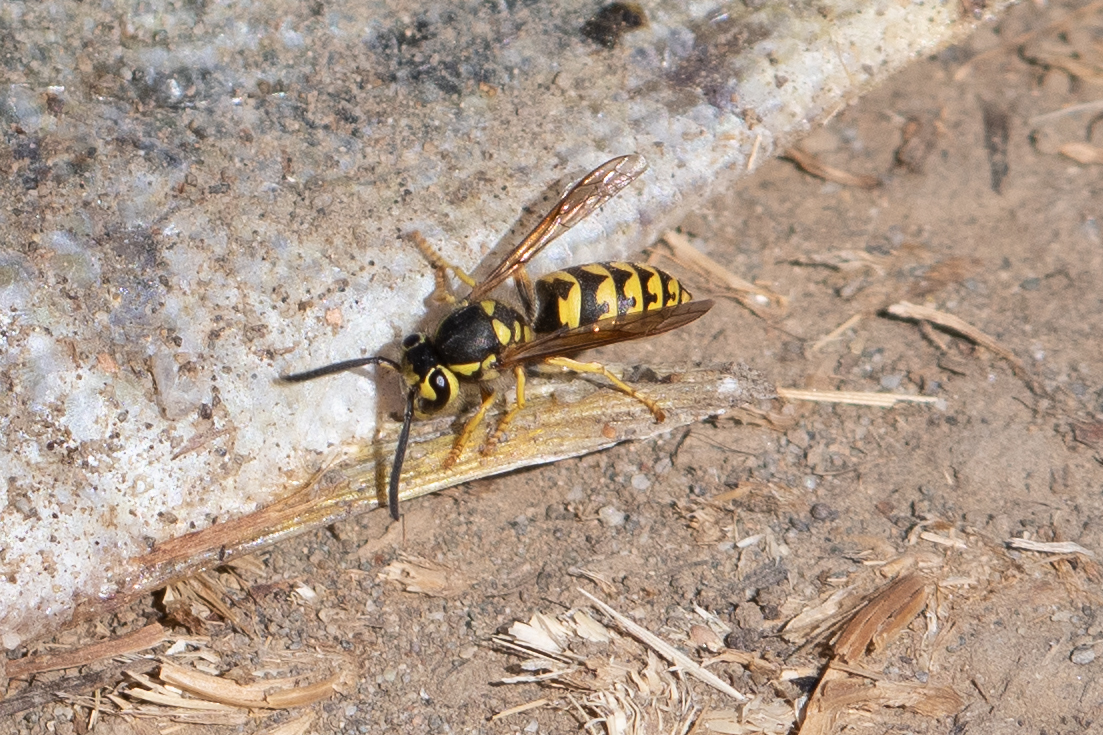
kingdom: Animalia
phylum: Arthropoda
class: Insecta
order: Hymenoptera
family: Vespidae
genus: Vespula
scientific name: Vespula pensylvanica
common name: Western yellowjacket
